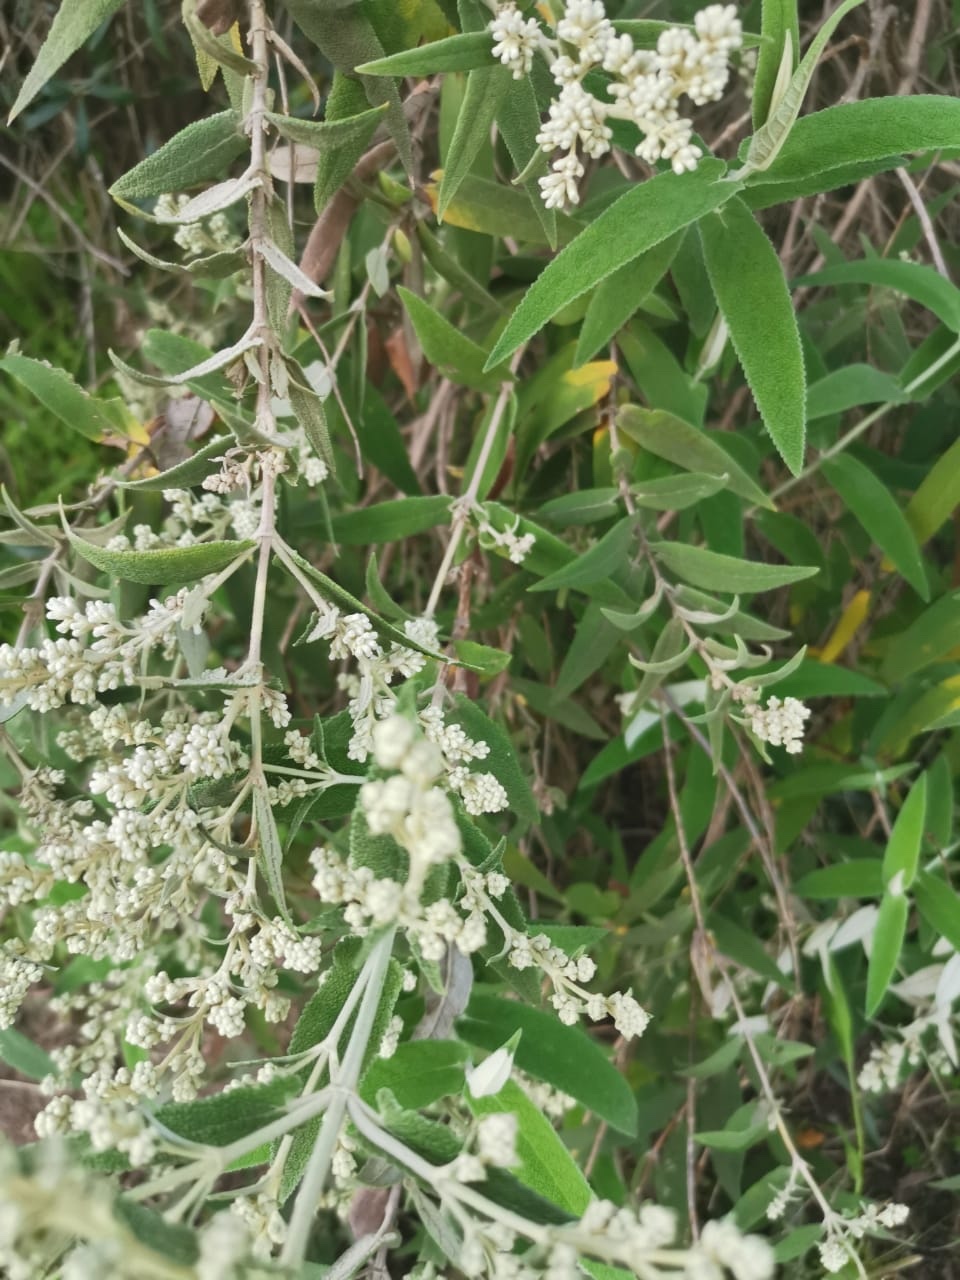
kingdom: Plantae
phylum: Tracheophyta
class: Magnoliopsida
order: Lamiales
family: Scrophulariaceae
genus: Buddleja
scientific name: Buddleja salviifolia
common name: Sagewood
